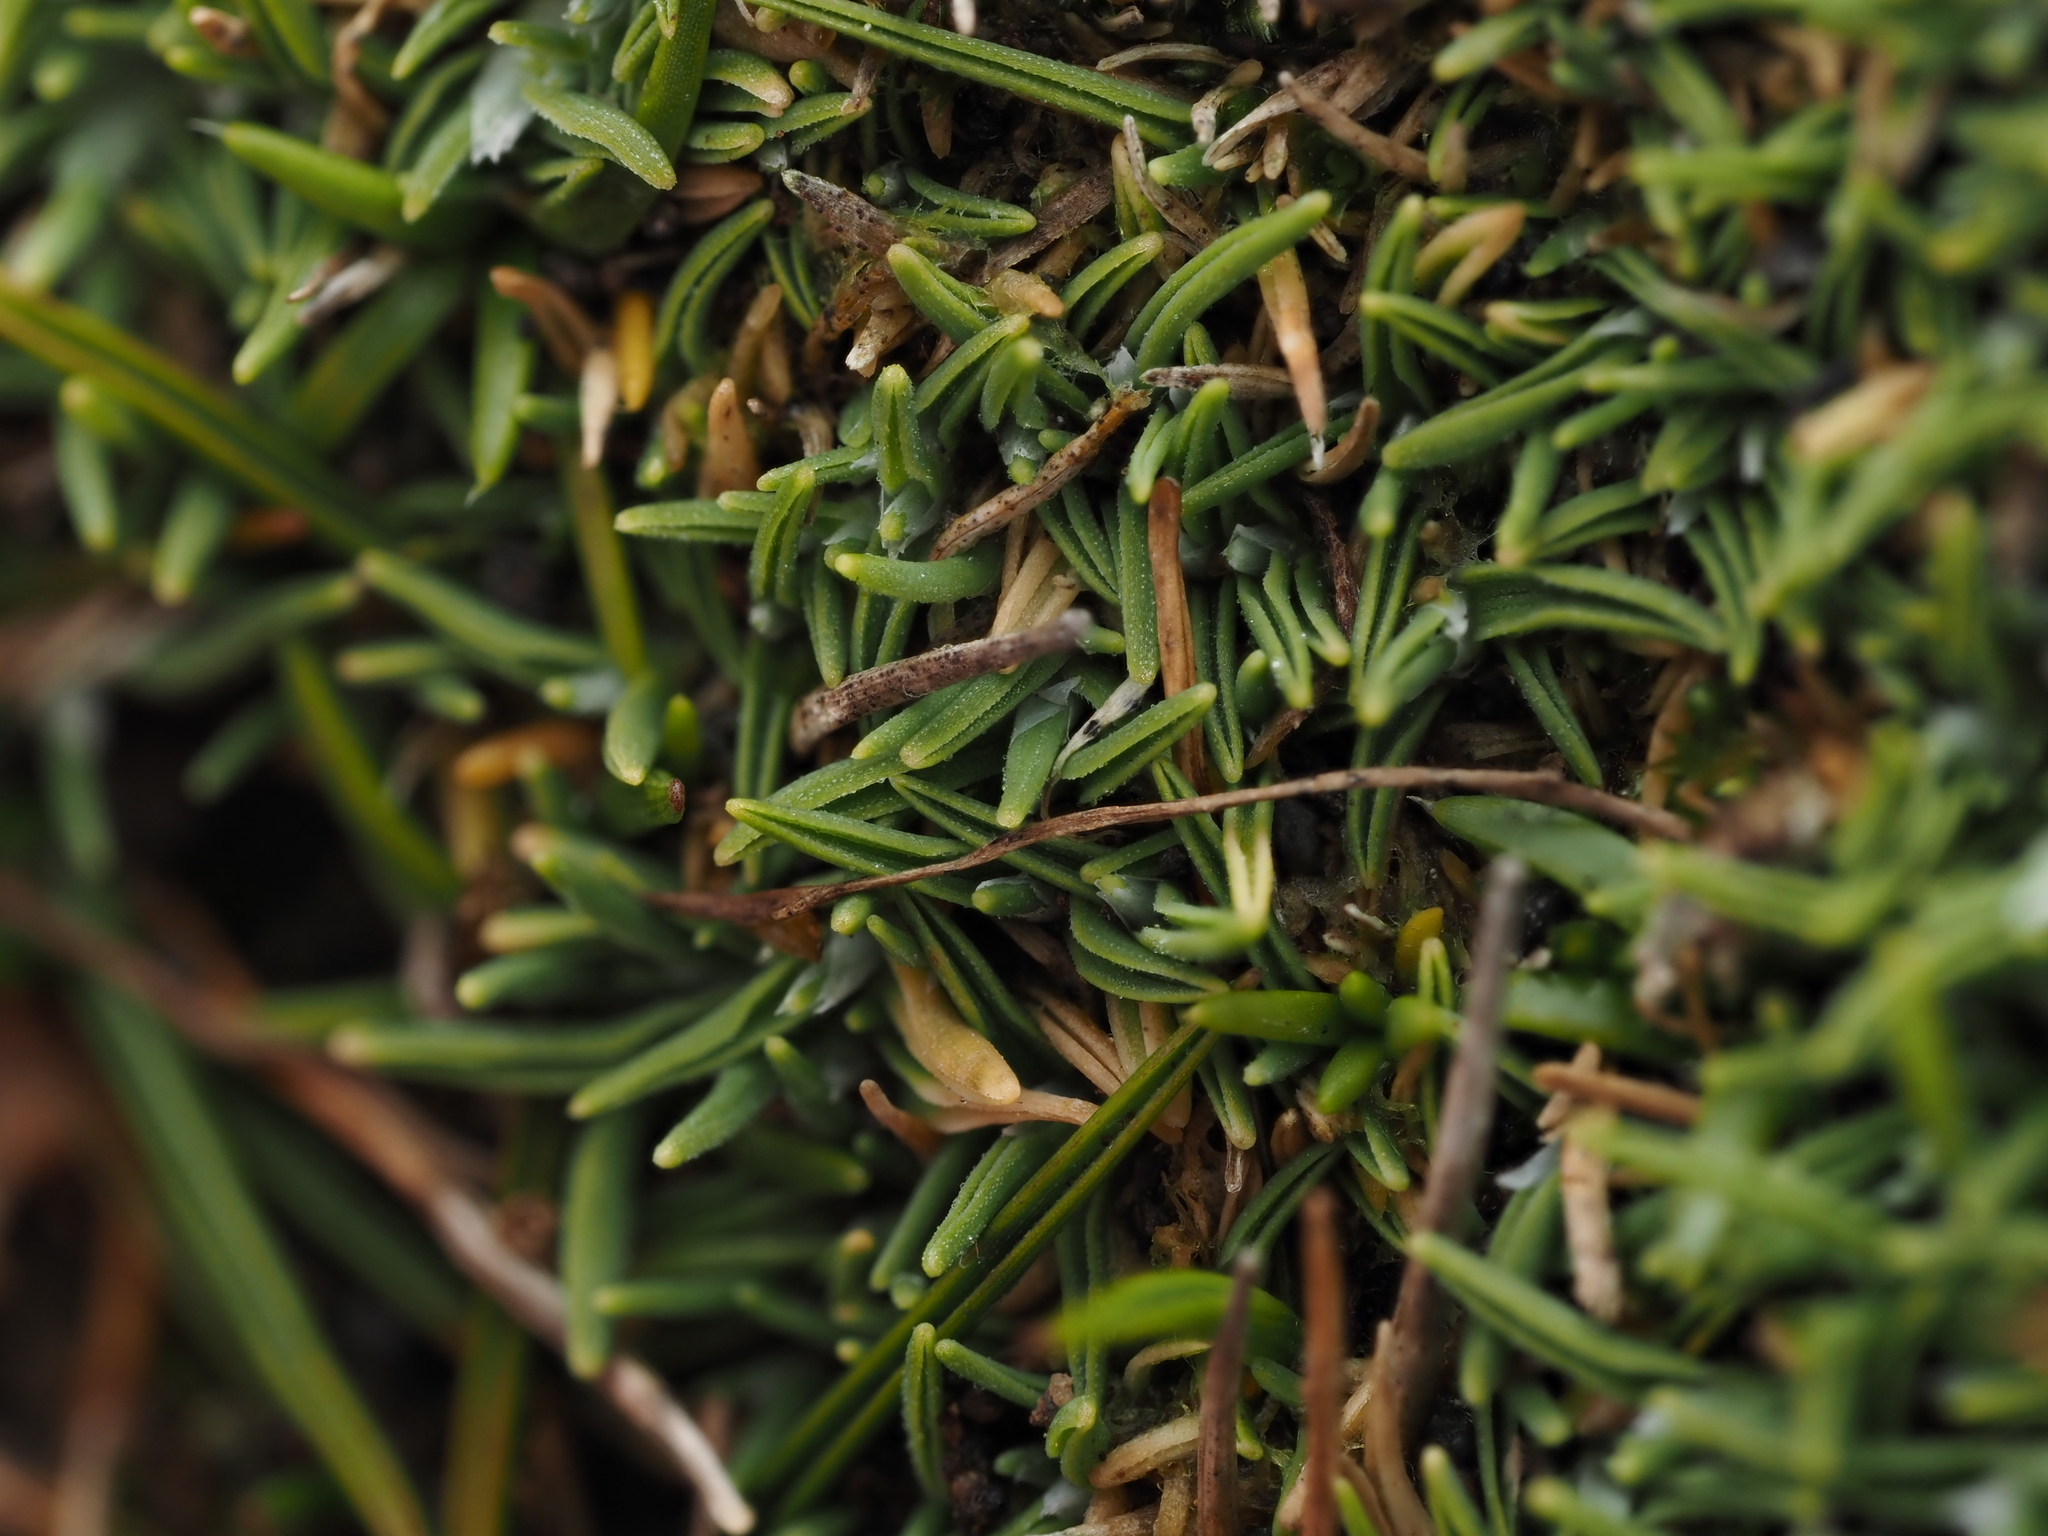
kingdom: Plantae
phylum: Tracheophyta
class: Liliopsida
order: Poales
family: Poaceae
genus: Agrostis
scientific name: Agrostis muscosa
